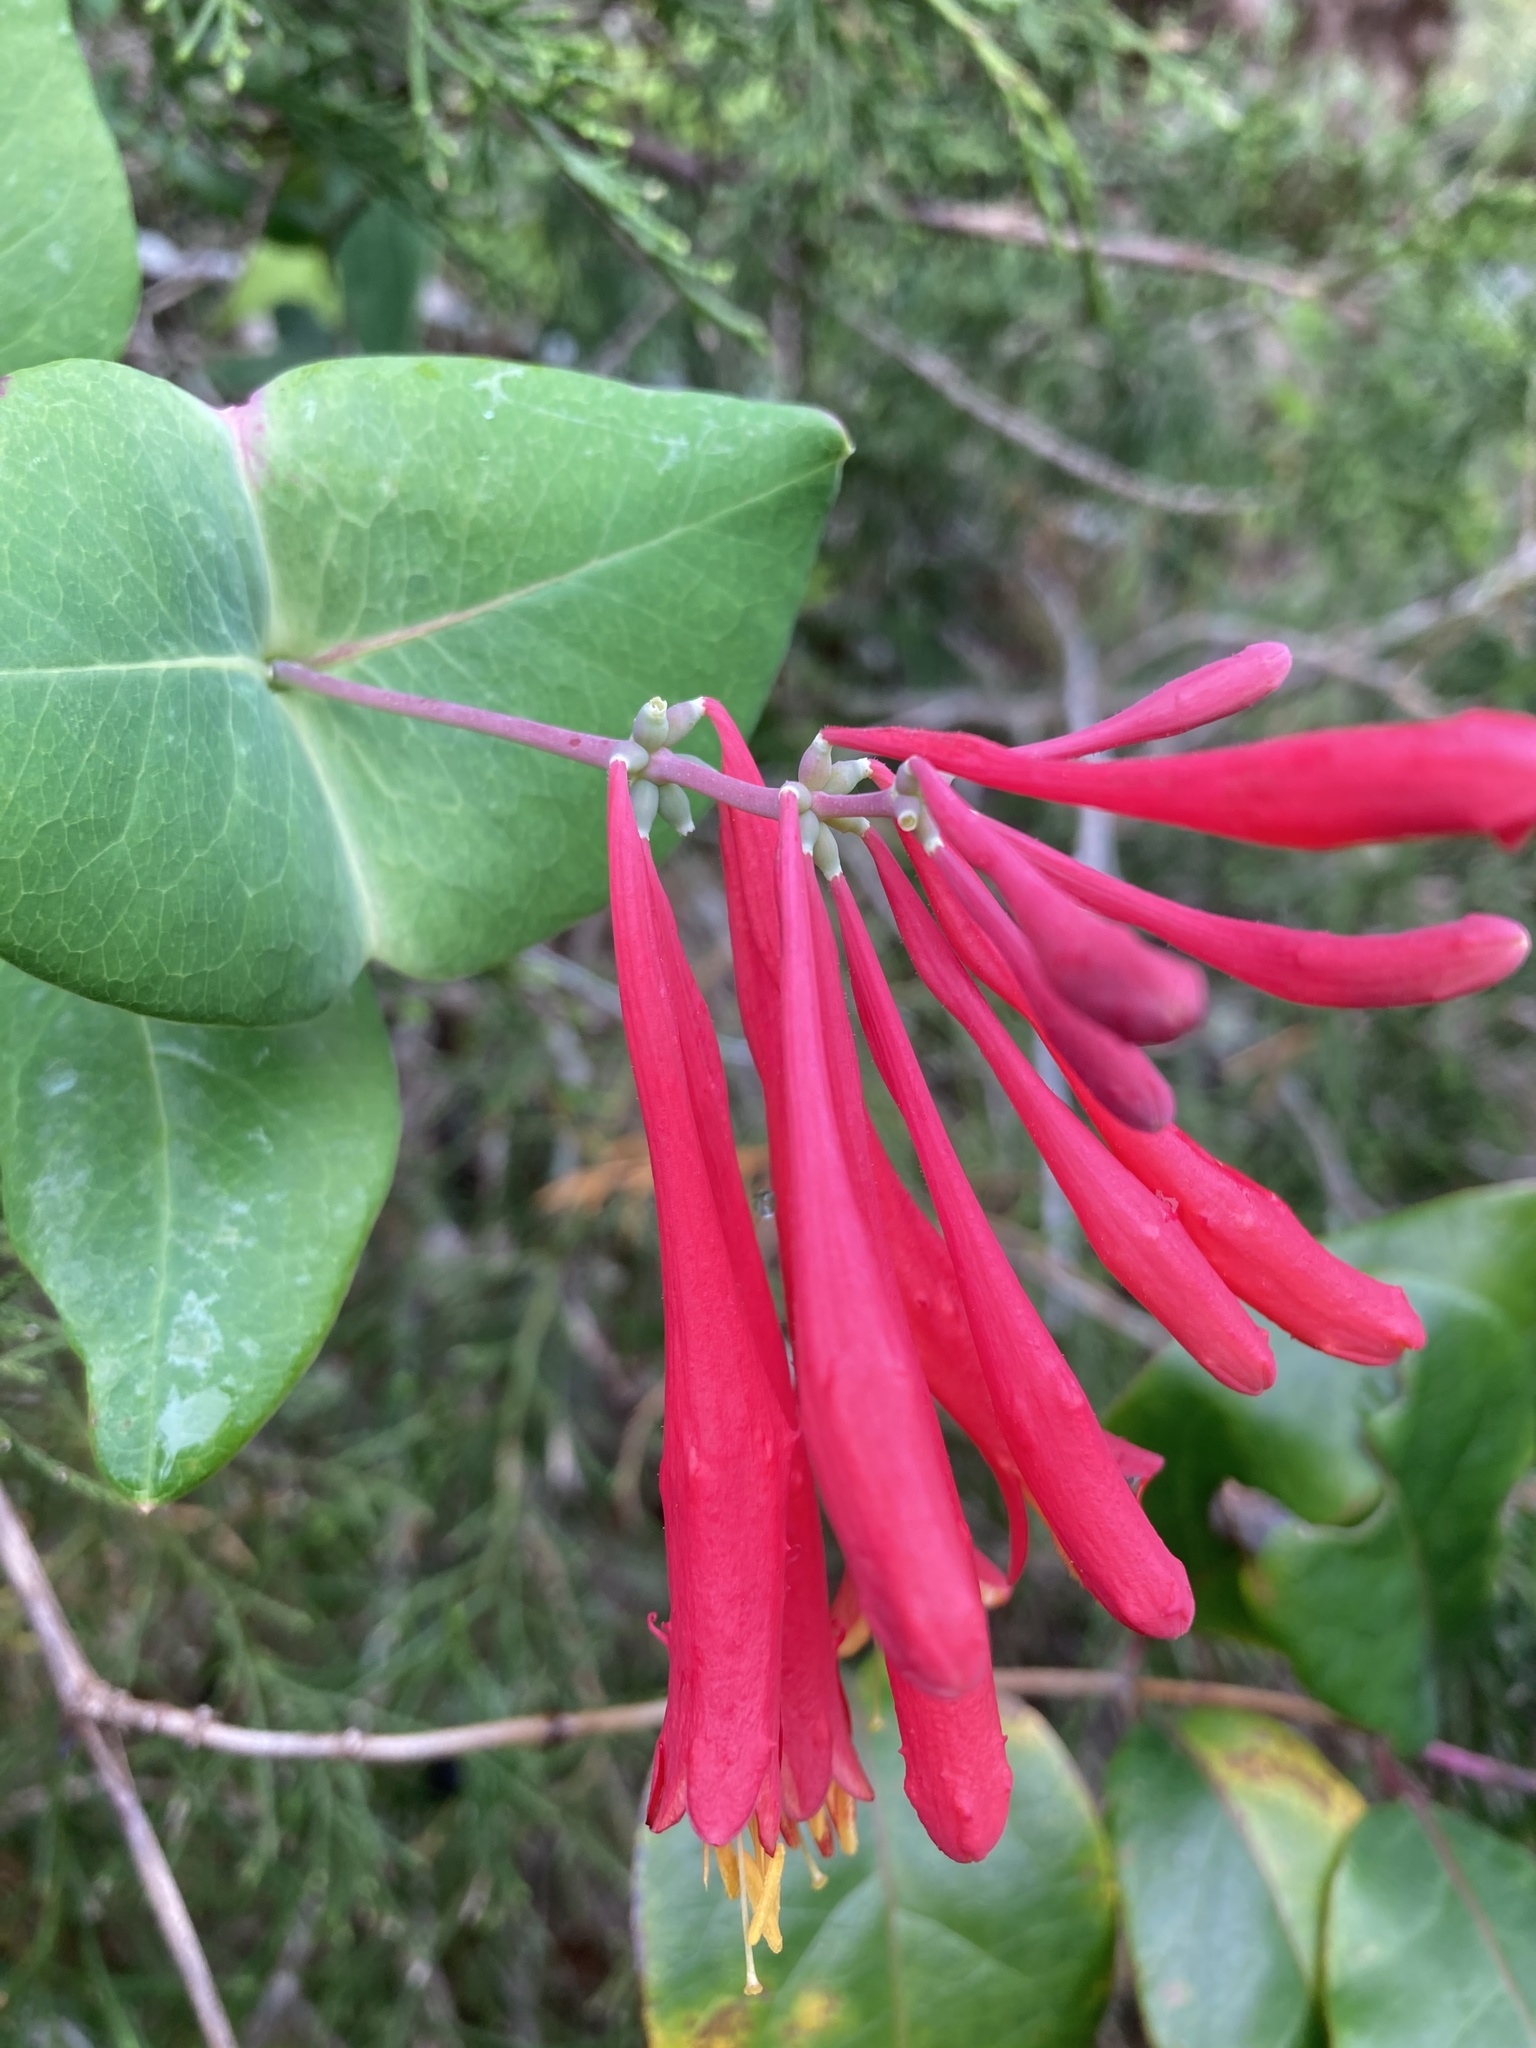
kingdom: Plantae
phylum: Tracheophyta
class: Magnoliopsida
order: Dipsacales
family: Caprifoliaceae
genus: Lonicera
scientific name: Lonicera sempervirens
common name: Coral honeysuckle
